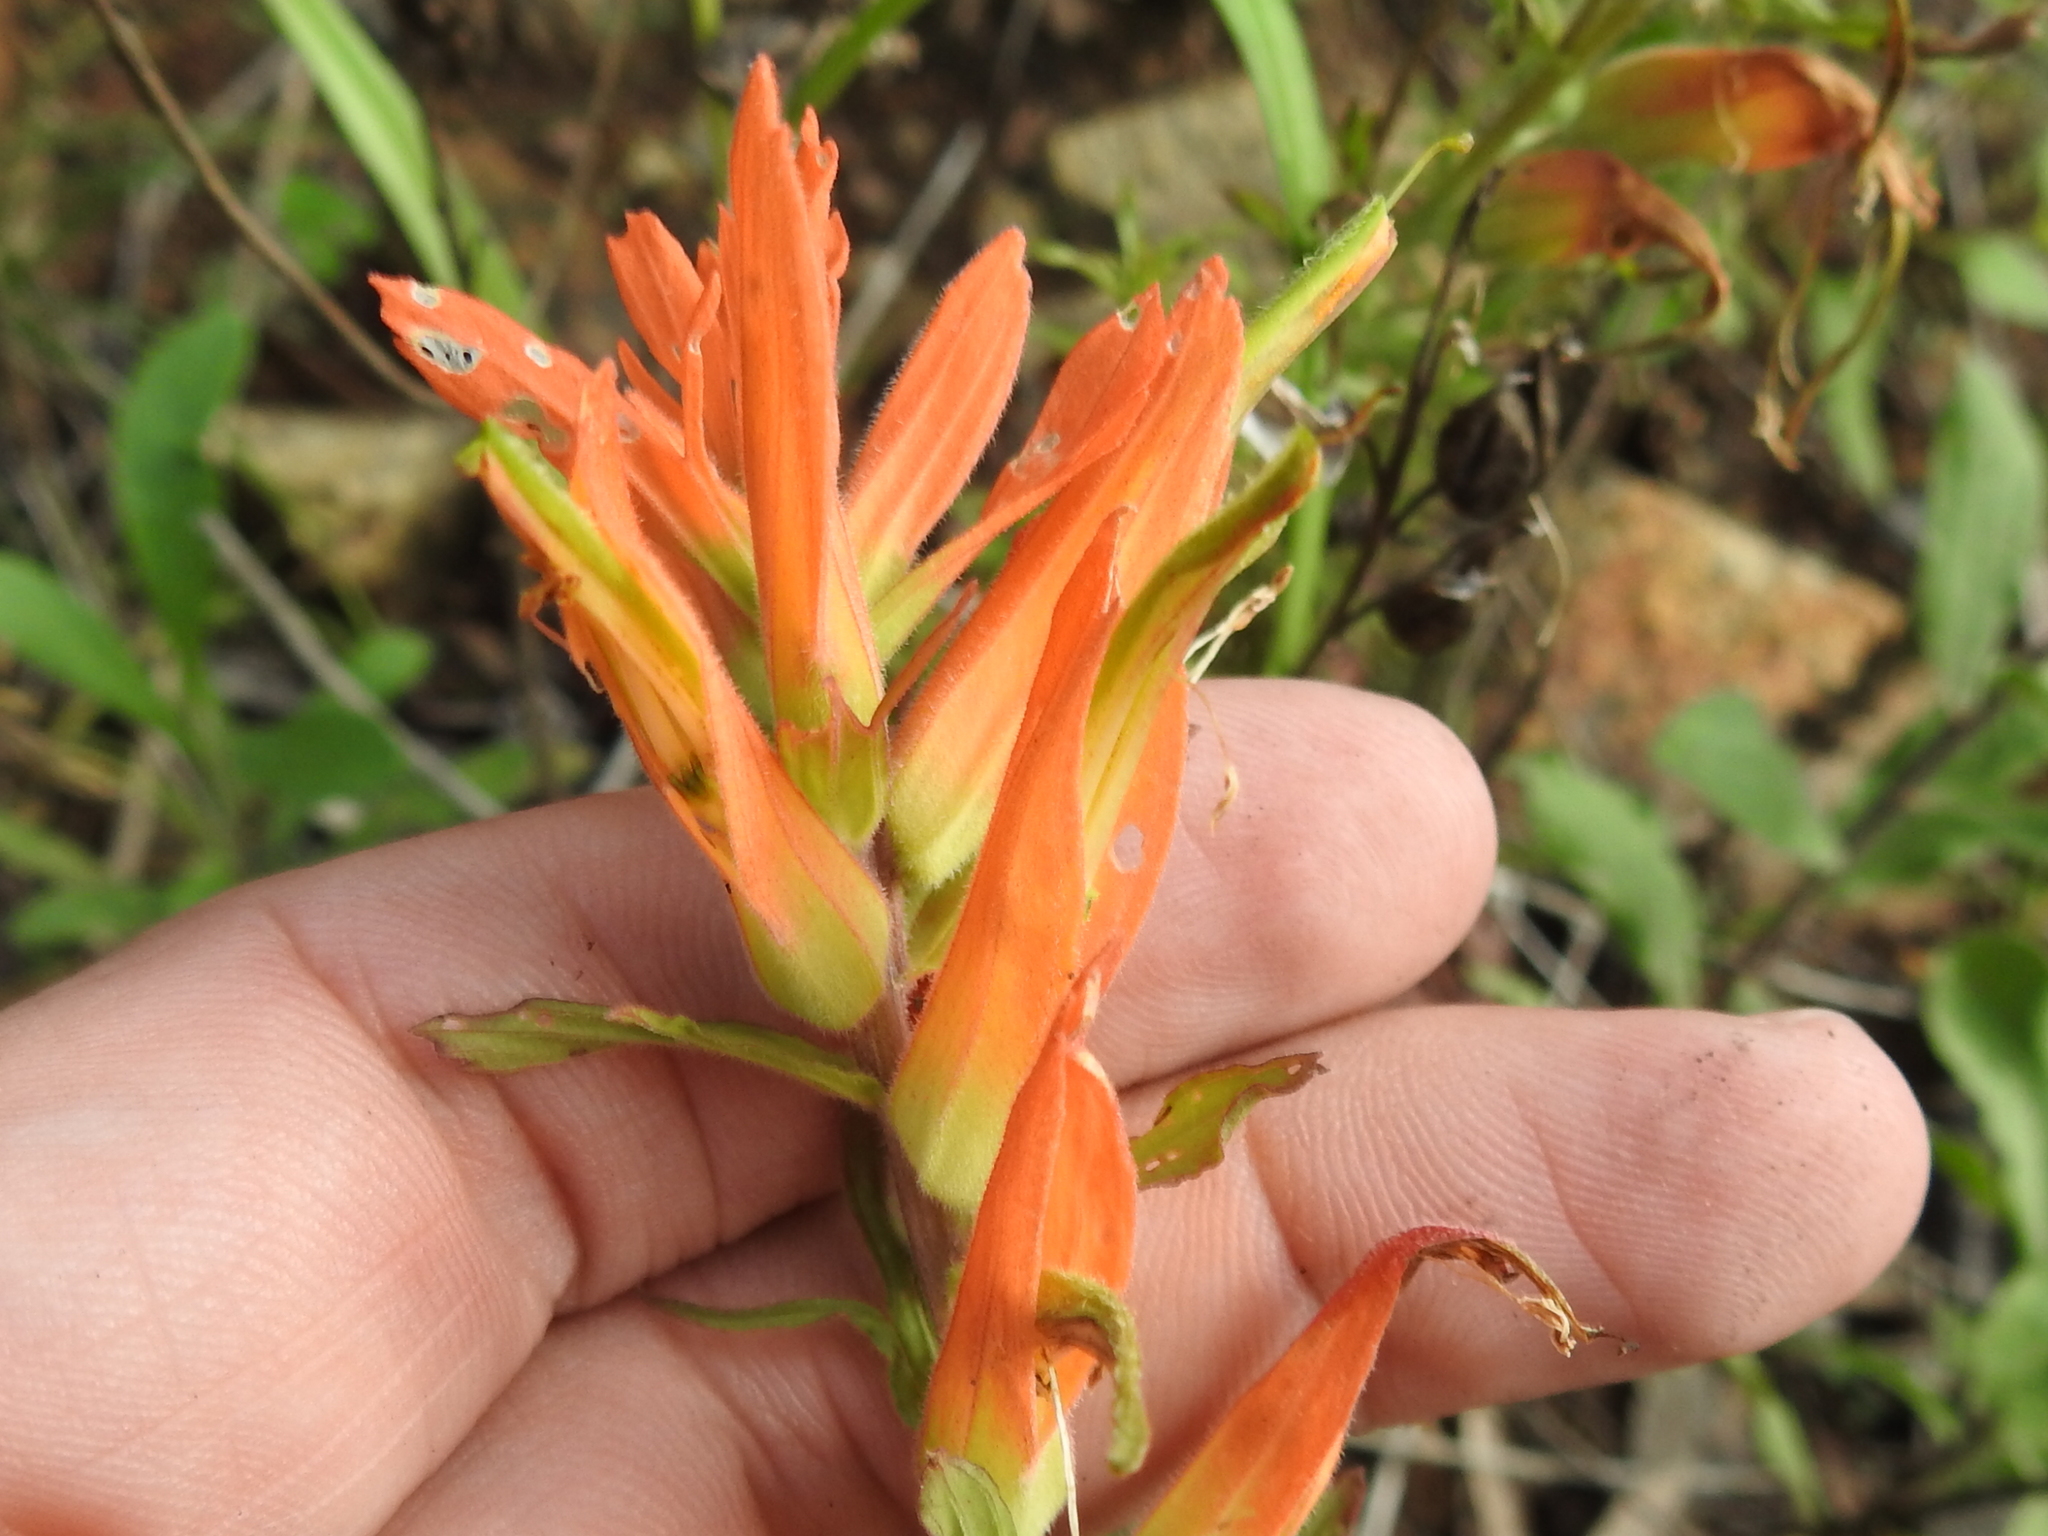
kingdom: Plantae
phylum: Tracheophyta
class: Magnoliopsida
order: Lamiales
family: Orobanchaceae
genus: Castilleja
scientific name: Castilleja patriotica
